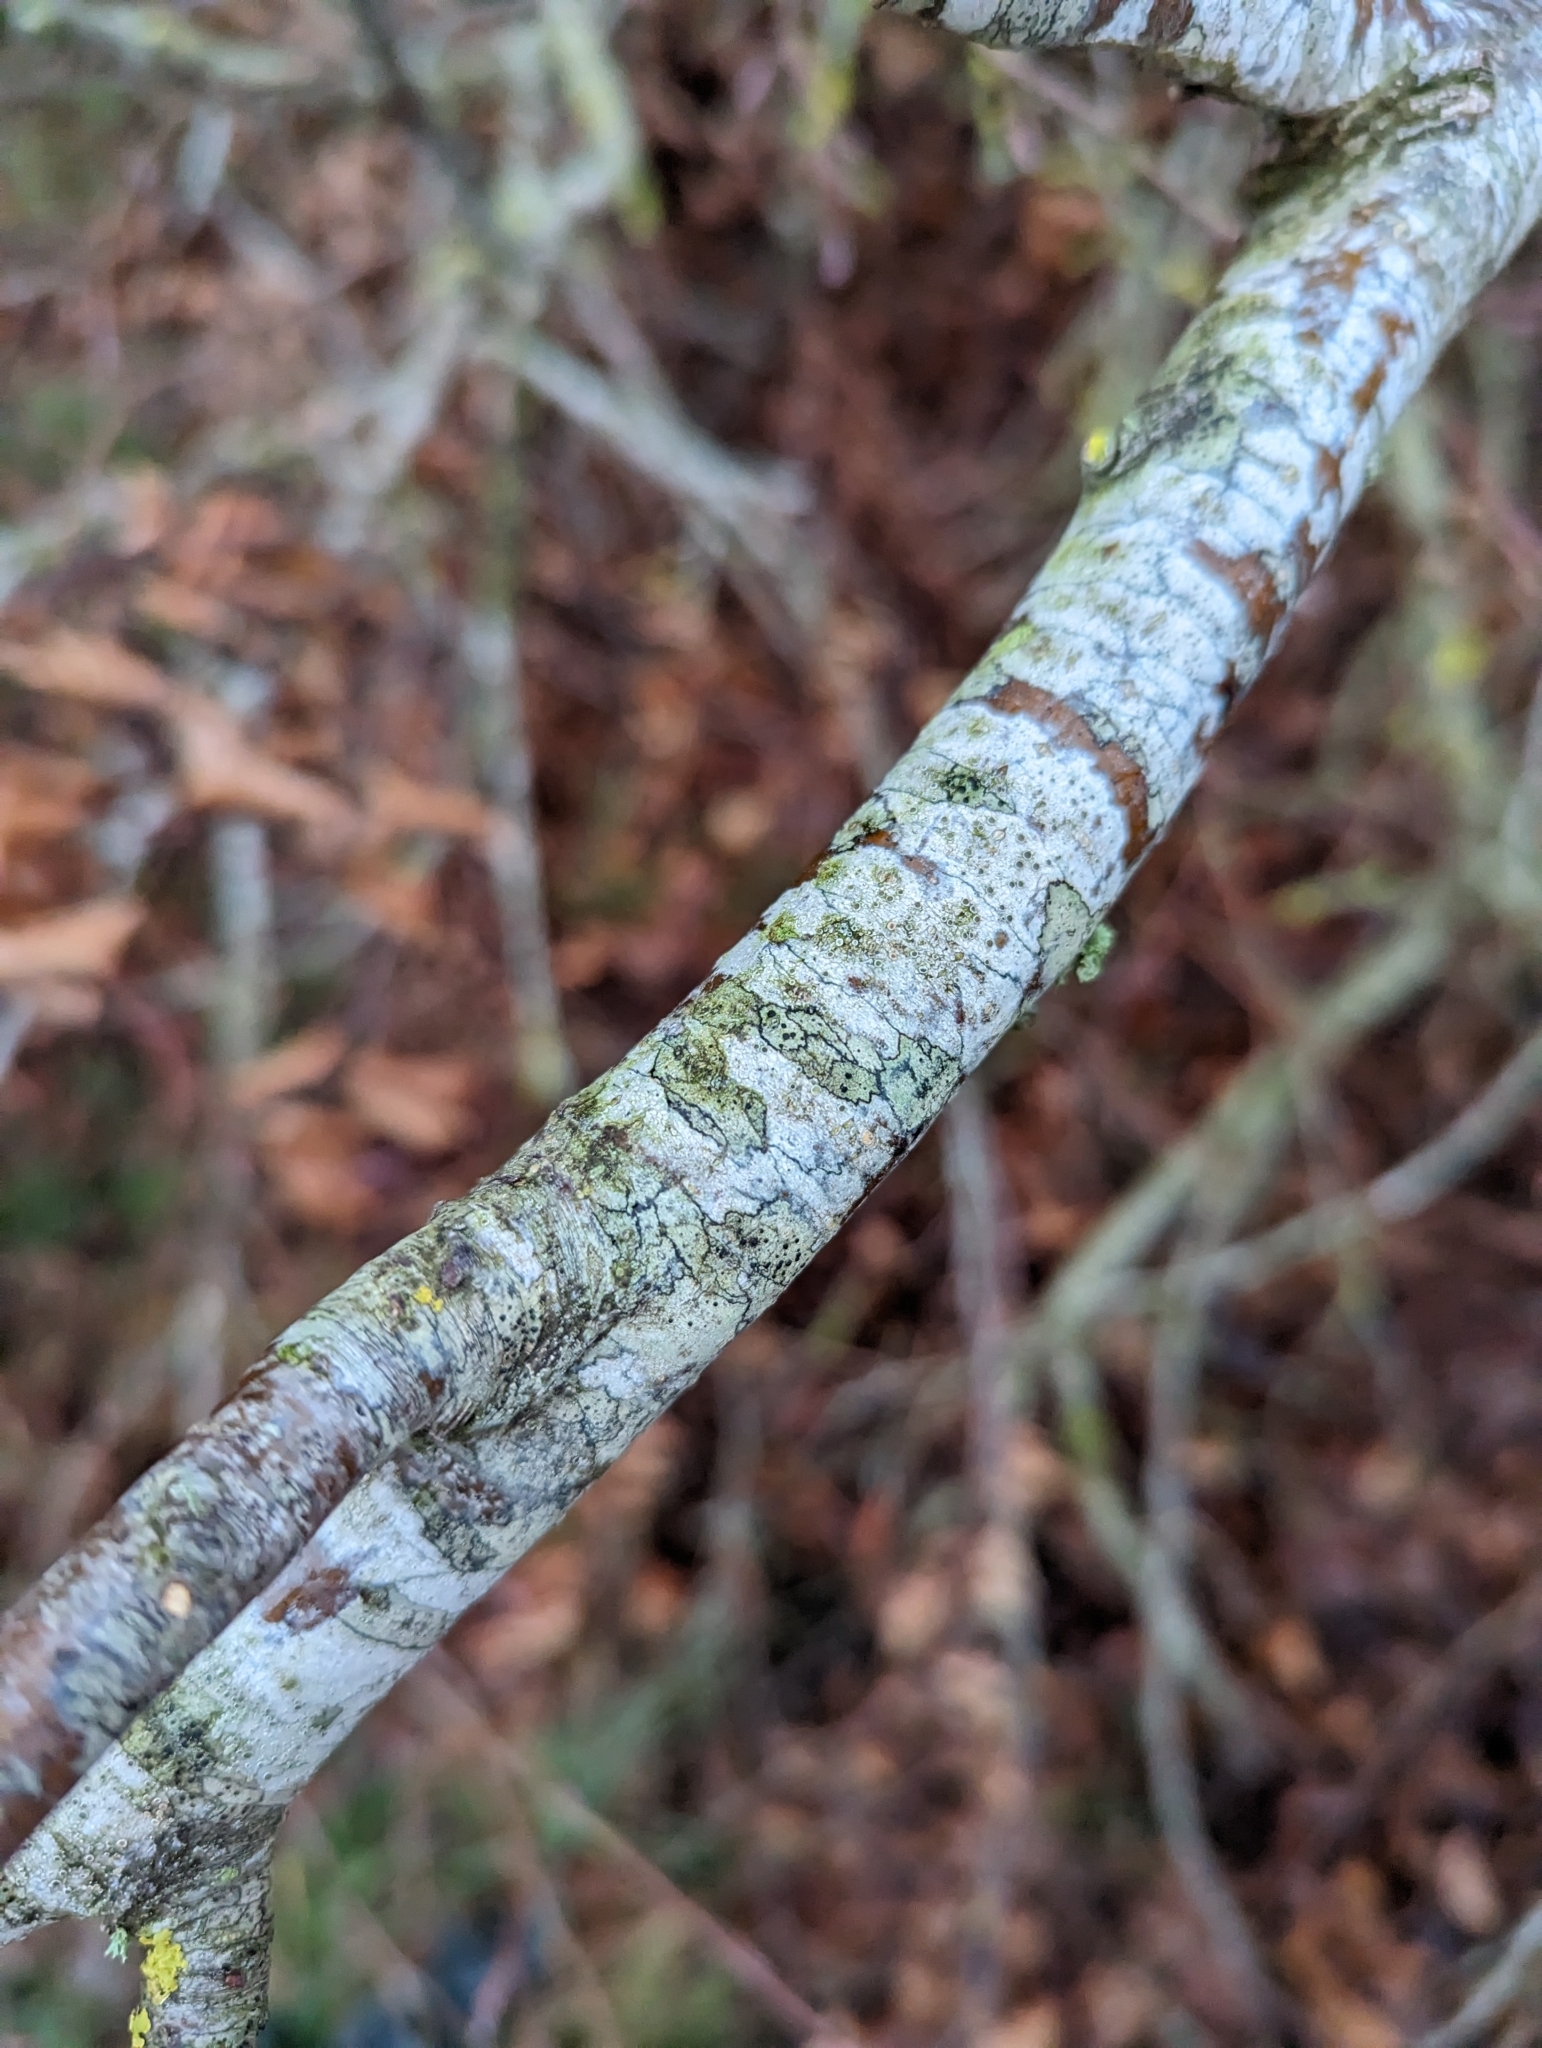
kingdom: Fungi
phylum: Ascomycota
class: Lecanoromycetes
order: Lecanorales
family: Lecanoraceae
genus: Lecidella
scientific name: Lecidella elaeochroma
